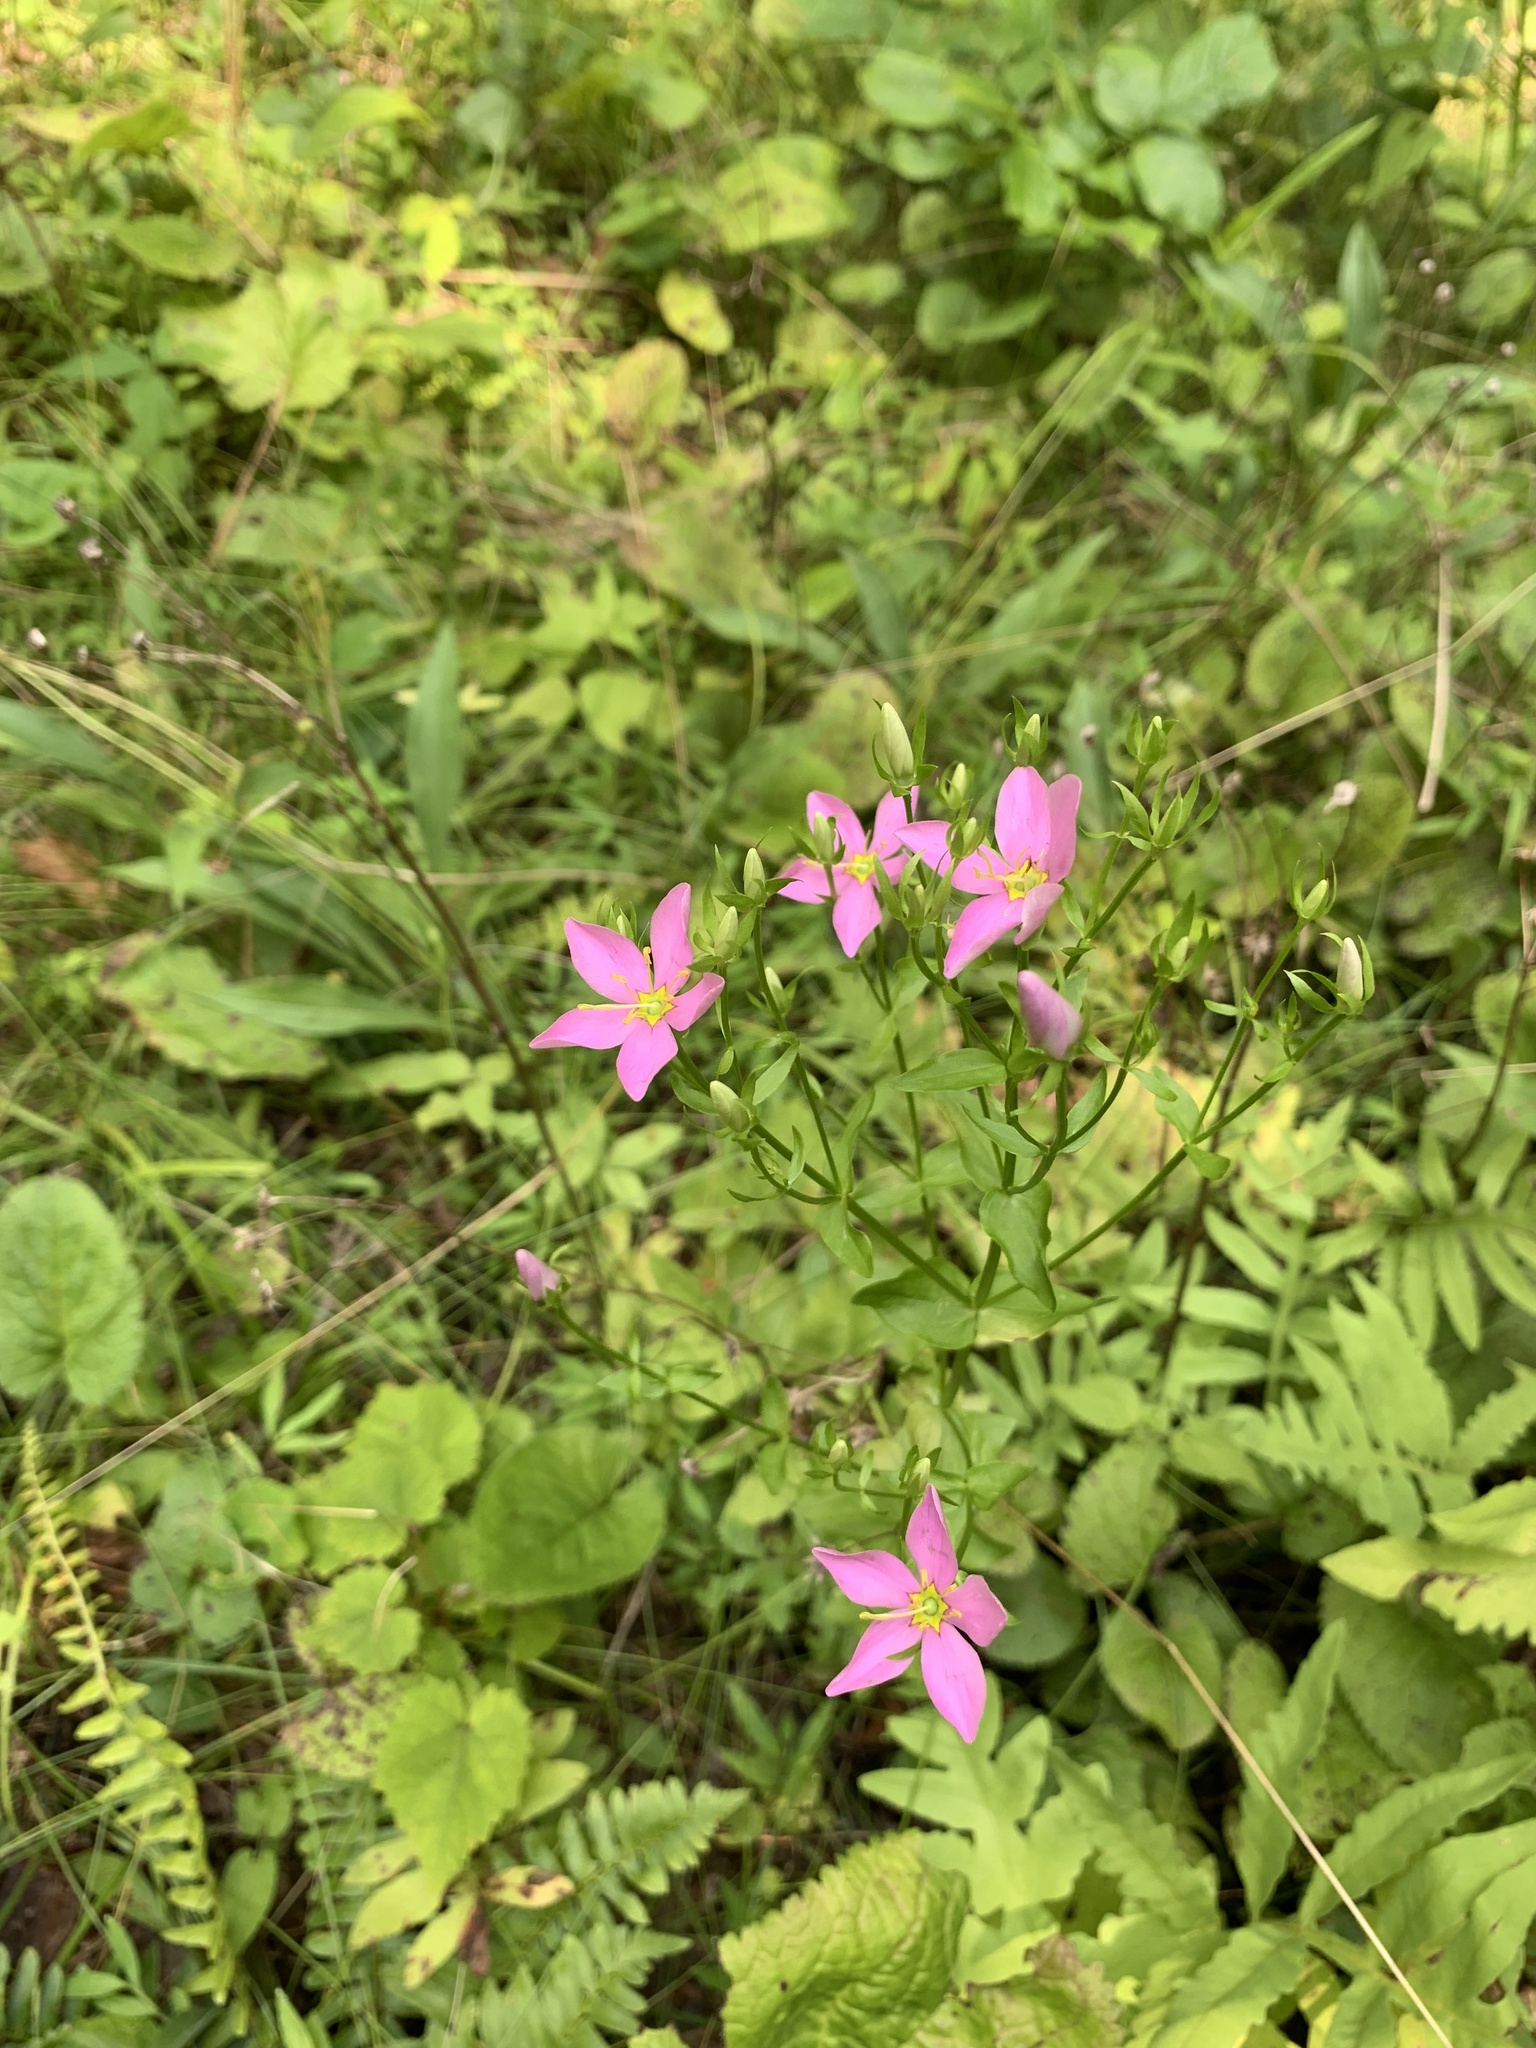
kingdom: Plantae
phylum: Tracheophyta
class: Magnoliopsida
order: Gentianales
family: Gentianaceae
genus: Sabatia
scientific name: Sabatia angularis
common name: Rose-pink
